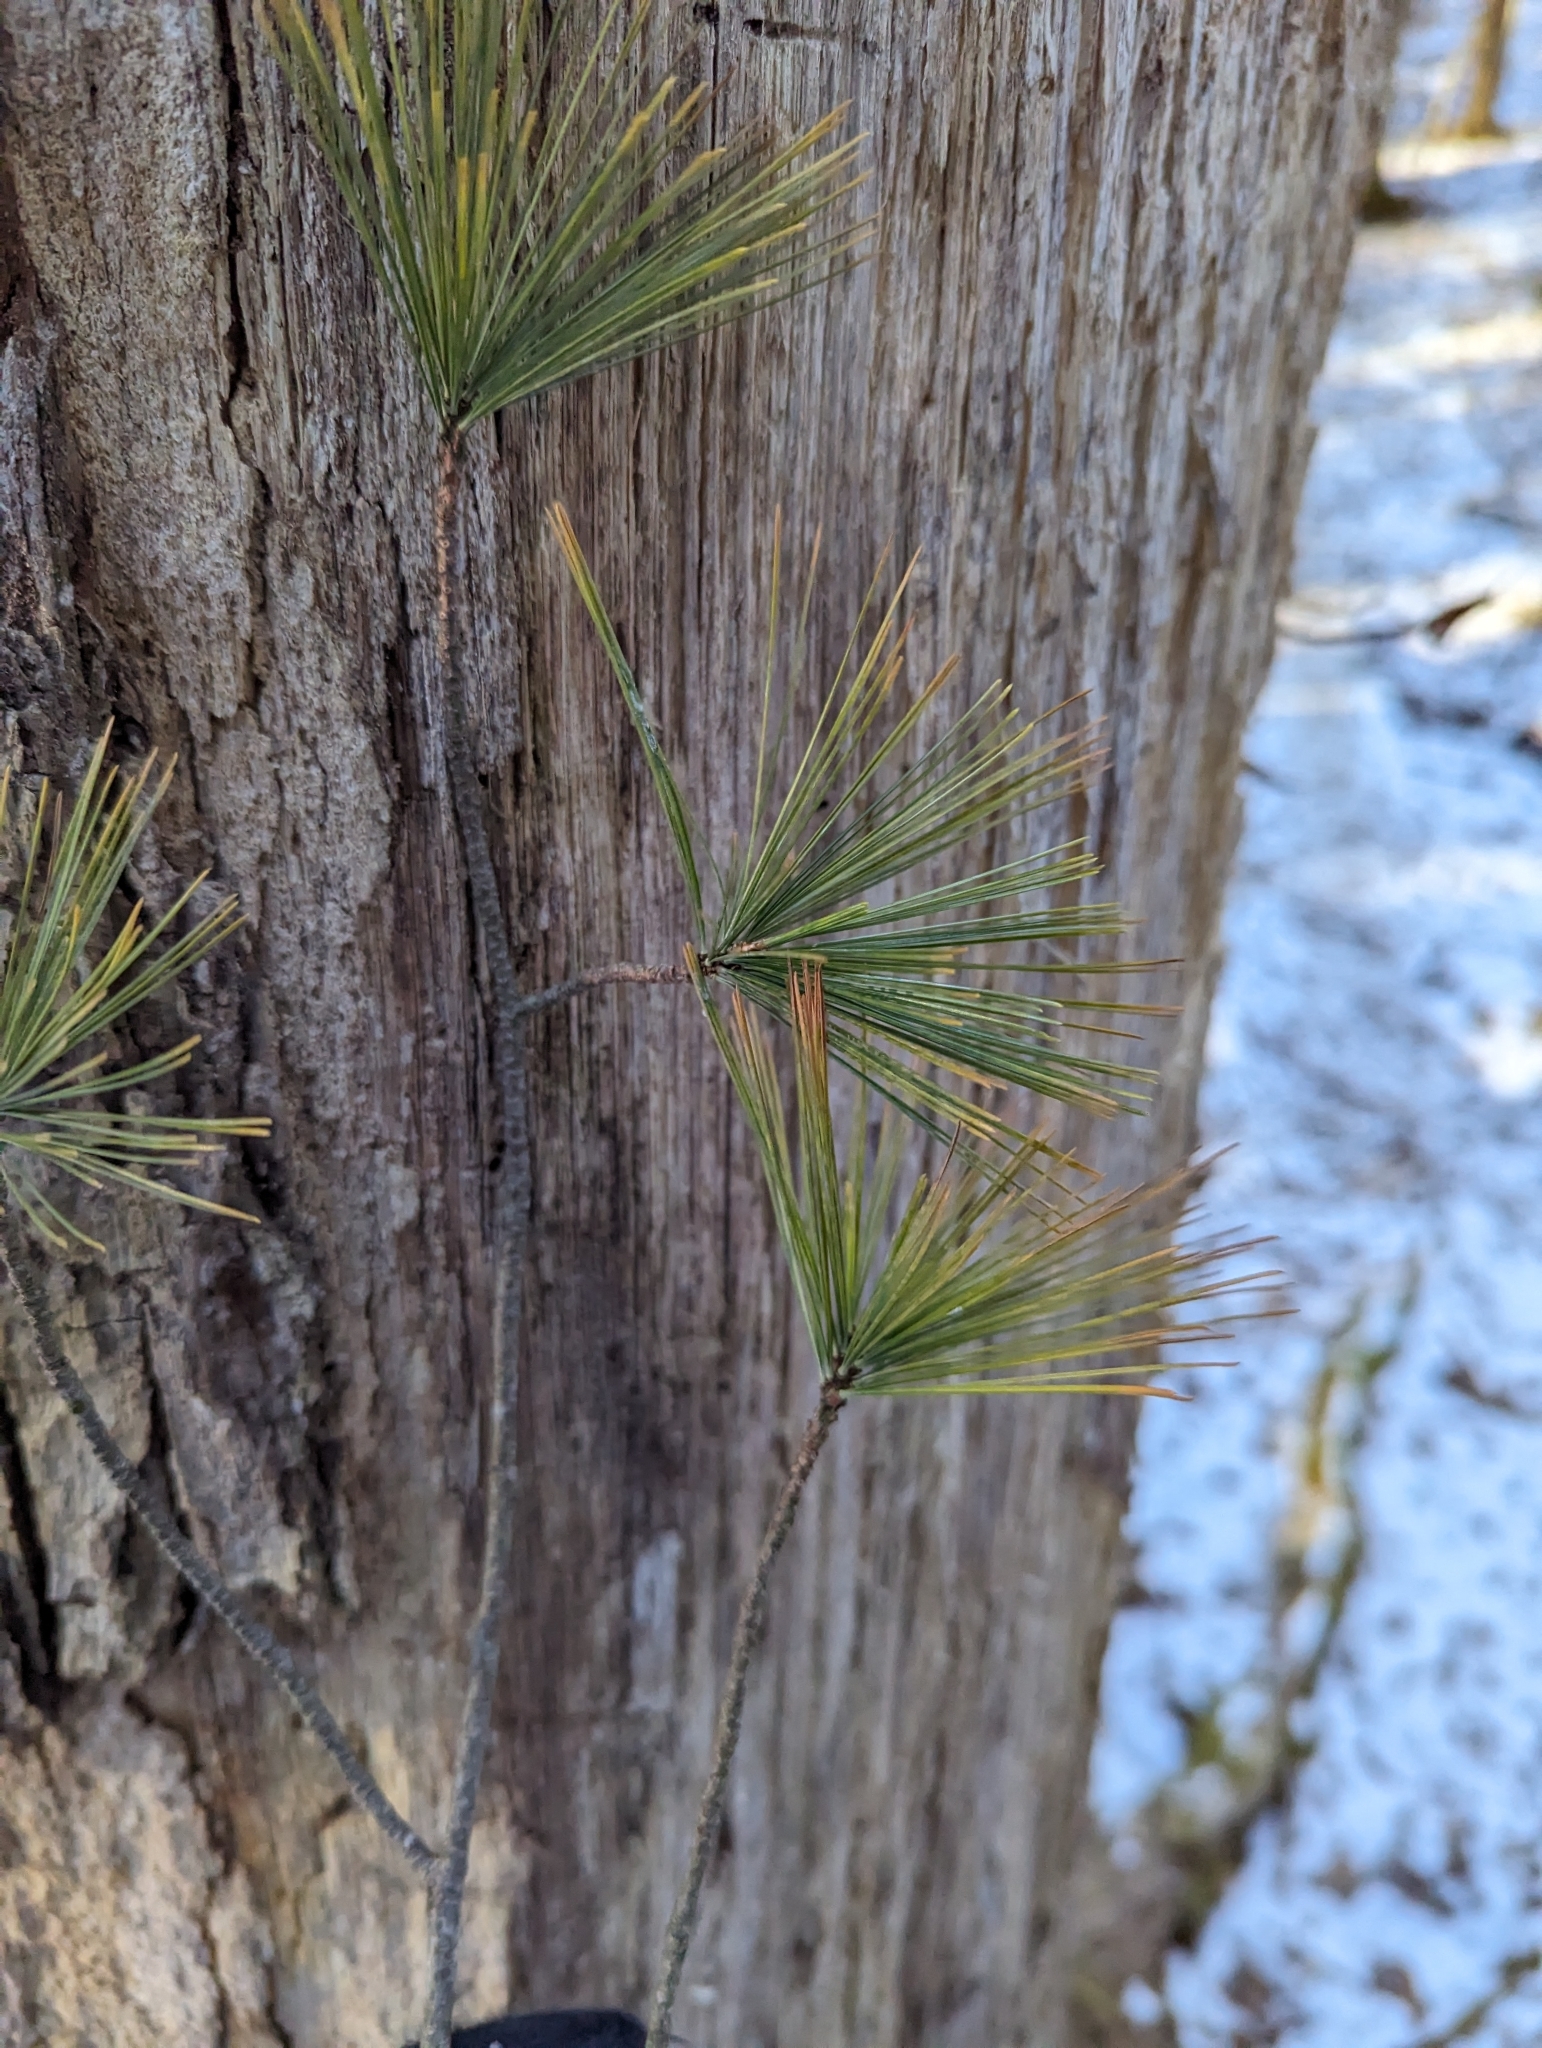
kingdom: Plantae
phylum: Tracheophyta
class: Pinopsida
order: Pinales
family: Pinaceae
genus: Pinus
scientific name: Pinus strobus
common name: Weymouth pine
